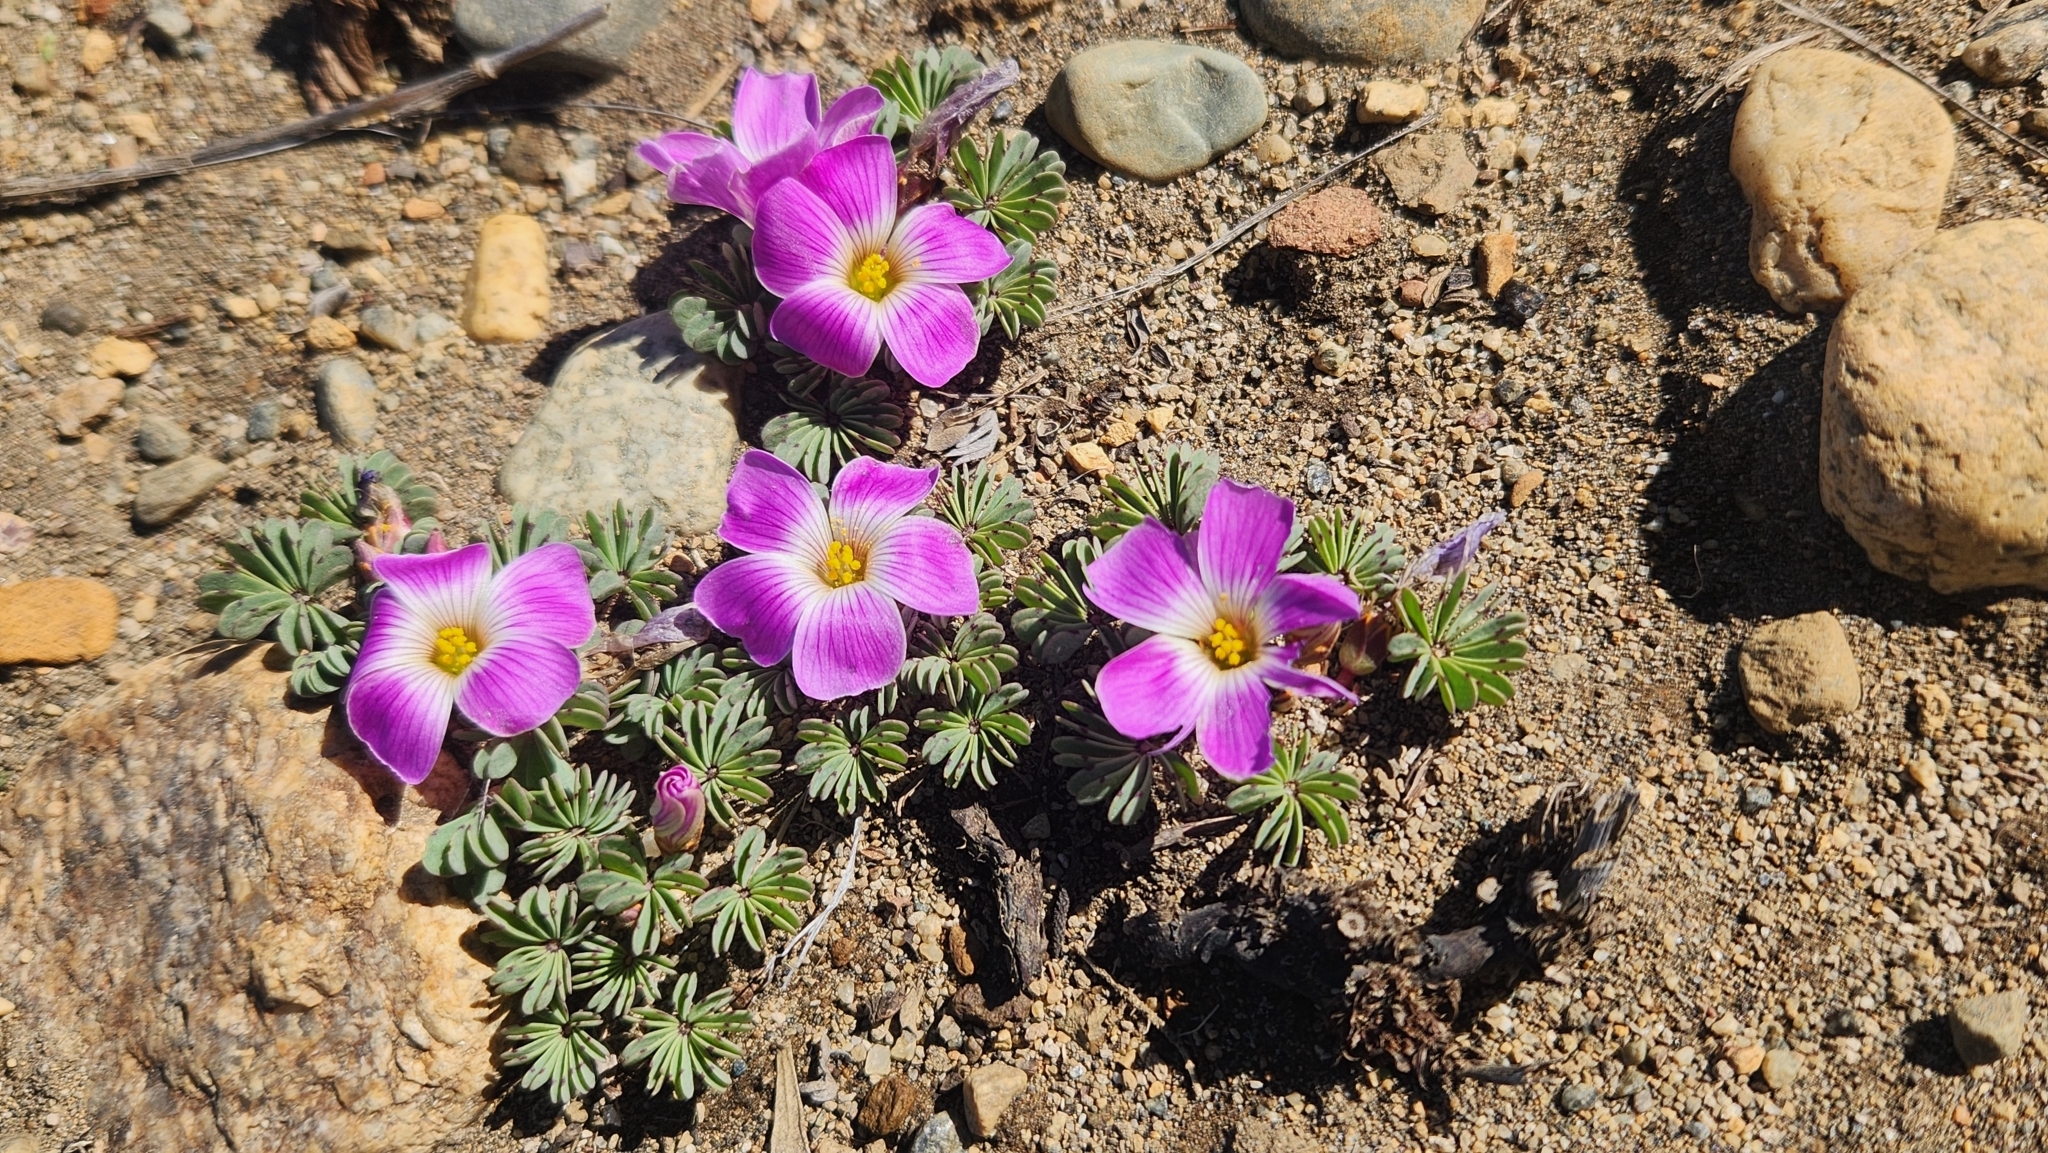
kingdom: Plantae
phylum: Tracheophyta
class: Magnoliopsida
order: Oxalidales
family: Oxalidaceae
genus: Oxalis
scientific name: Oxalis adenophylla
